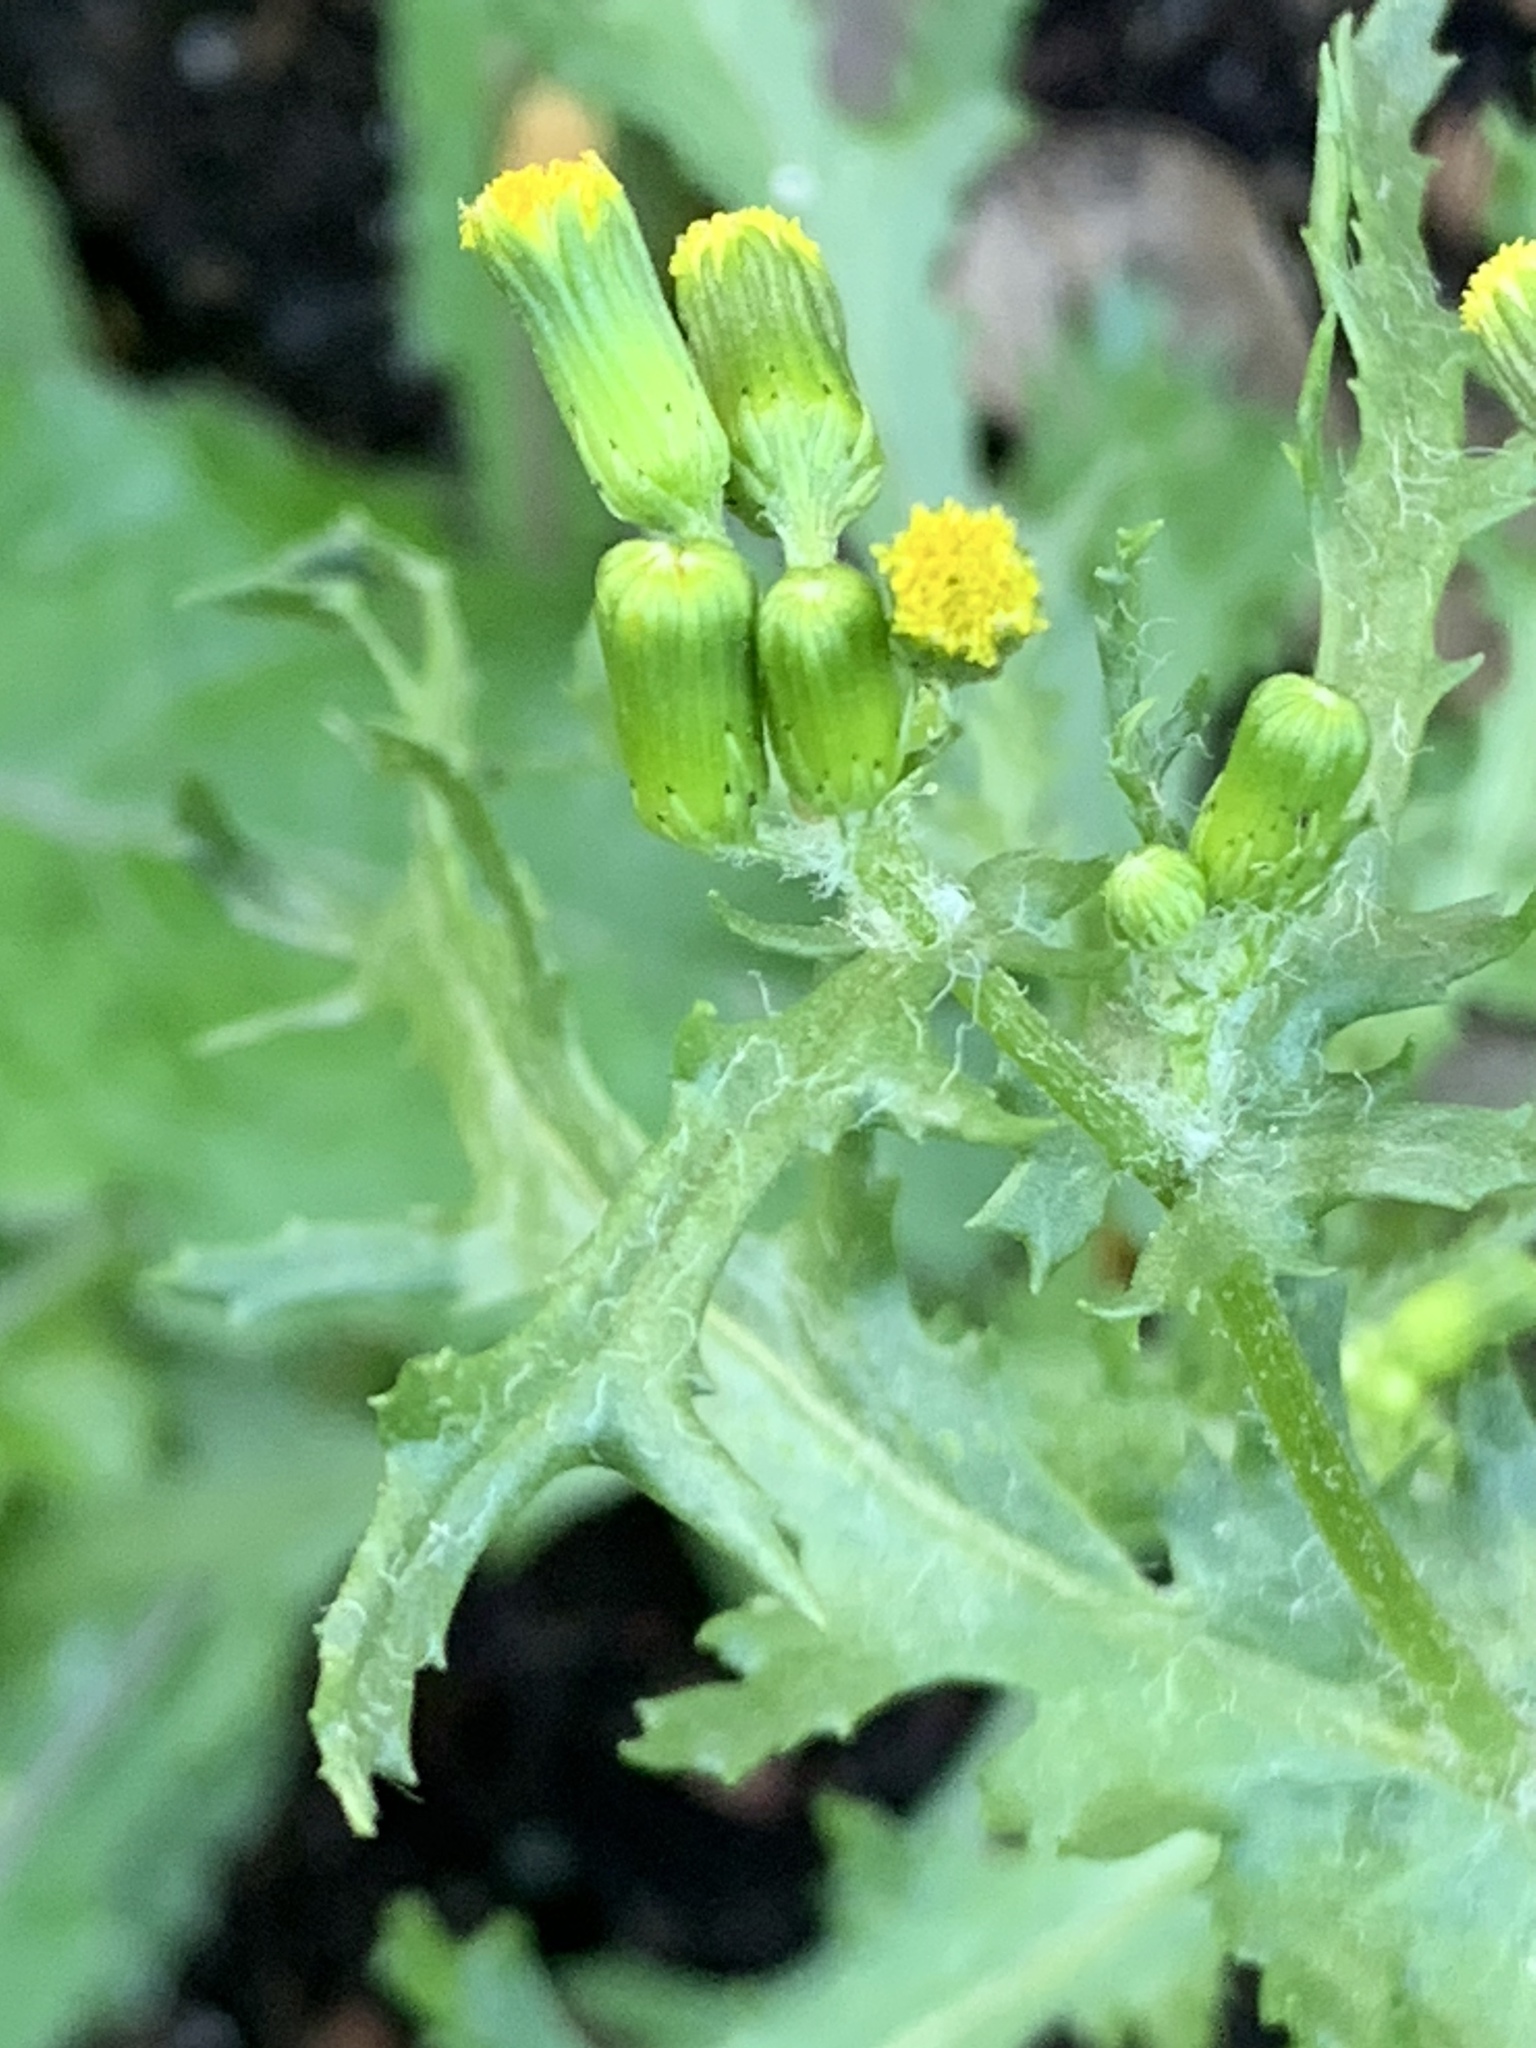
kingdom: Plantae
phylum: Tracheophyta
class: Magnoliopsida
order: Asterales
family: Asteraceae
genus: Senecio
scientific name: Senecio vulgaris
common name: Old-man-in-the-spring
